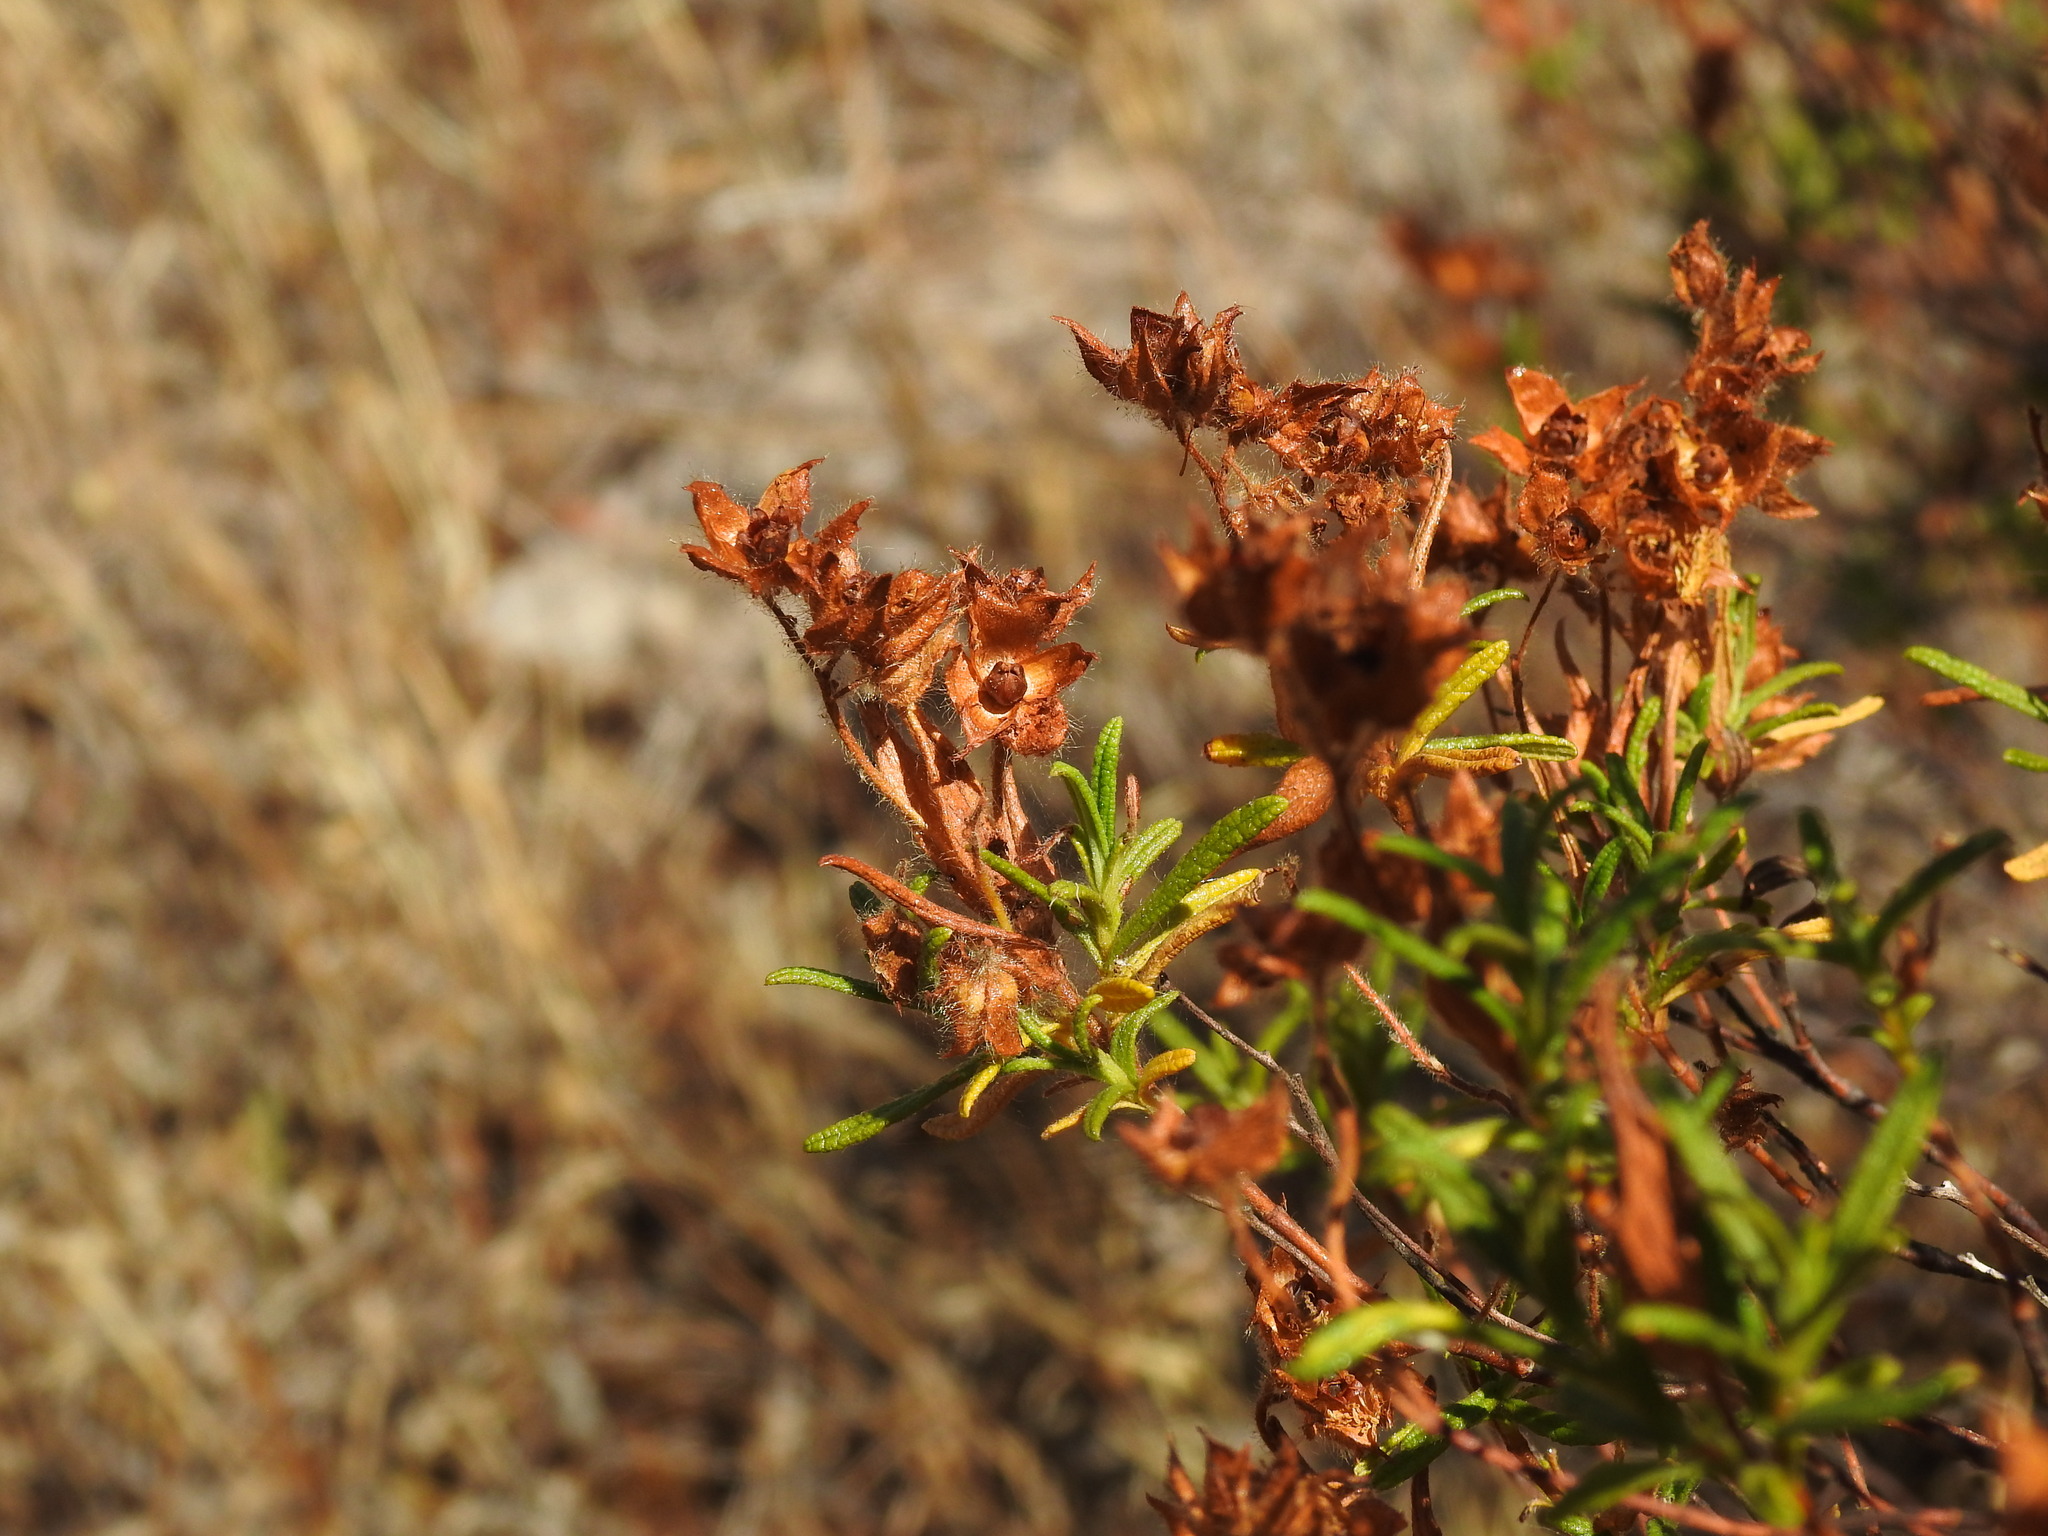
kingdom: Plantae
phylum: Tracheophyta
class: Magnoliopsida
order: Malvales
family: Cistaceae
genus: Cistus
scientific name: Cistus monspeliensis
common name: Montpelier cistus
